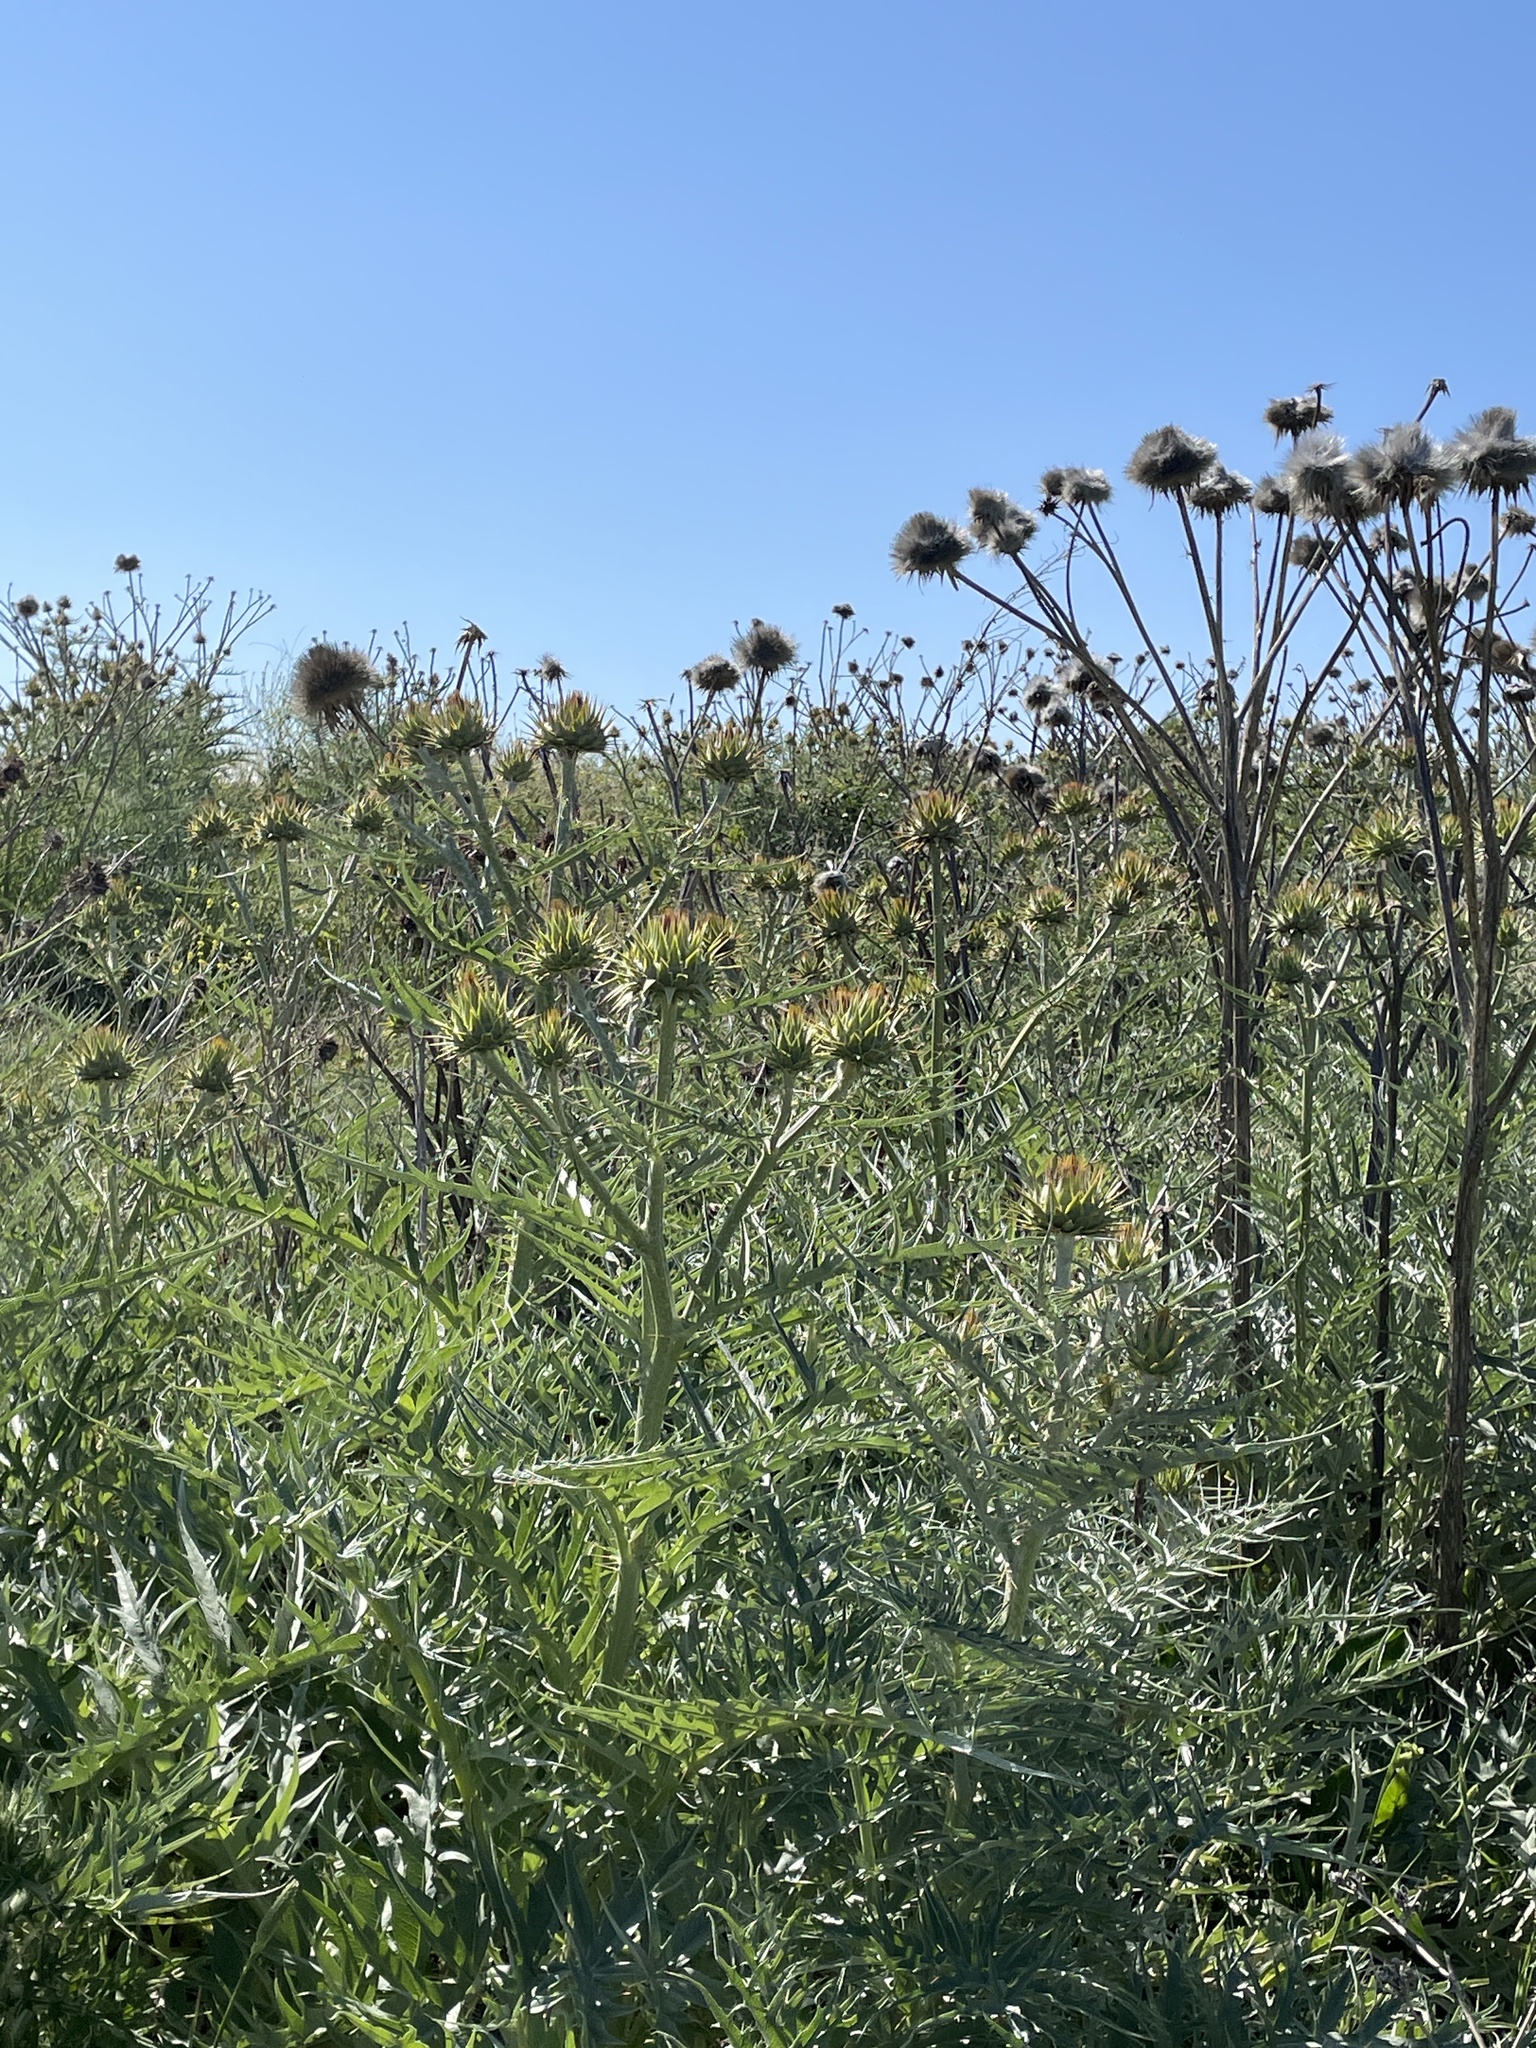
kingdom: Plantae
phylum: Tracheophyta
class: Magnoliopsida
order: Asterales
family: Asteraceae
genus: Cynara
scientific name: Cynara cardunculus
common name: Globe artichoke
